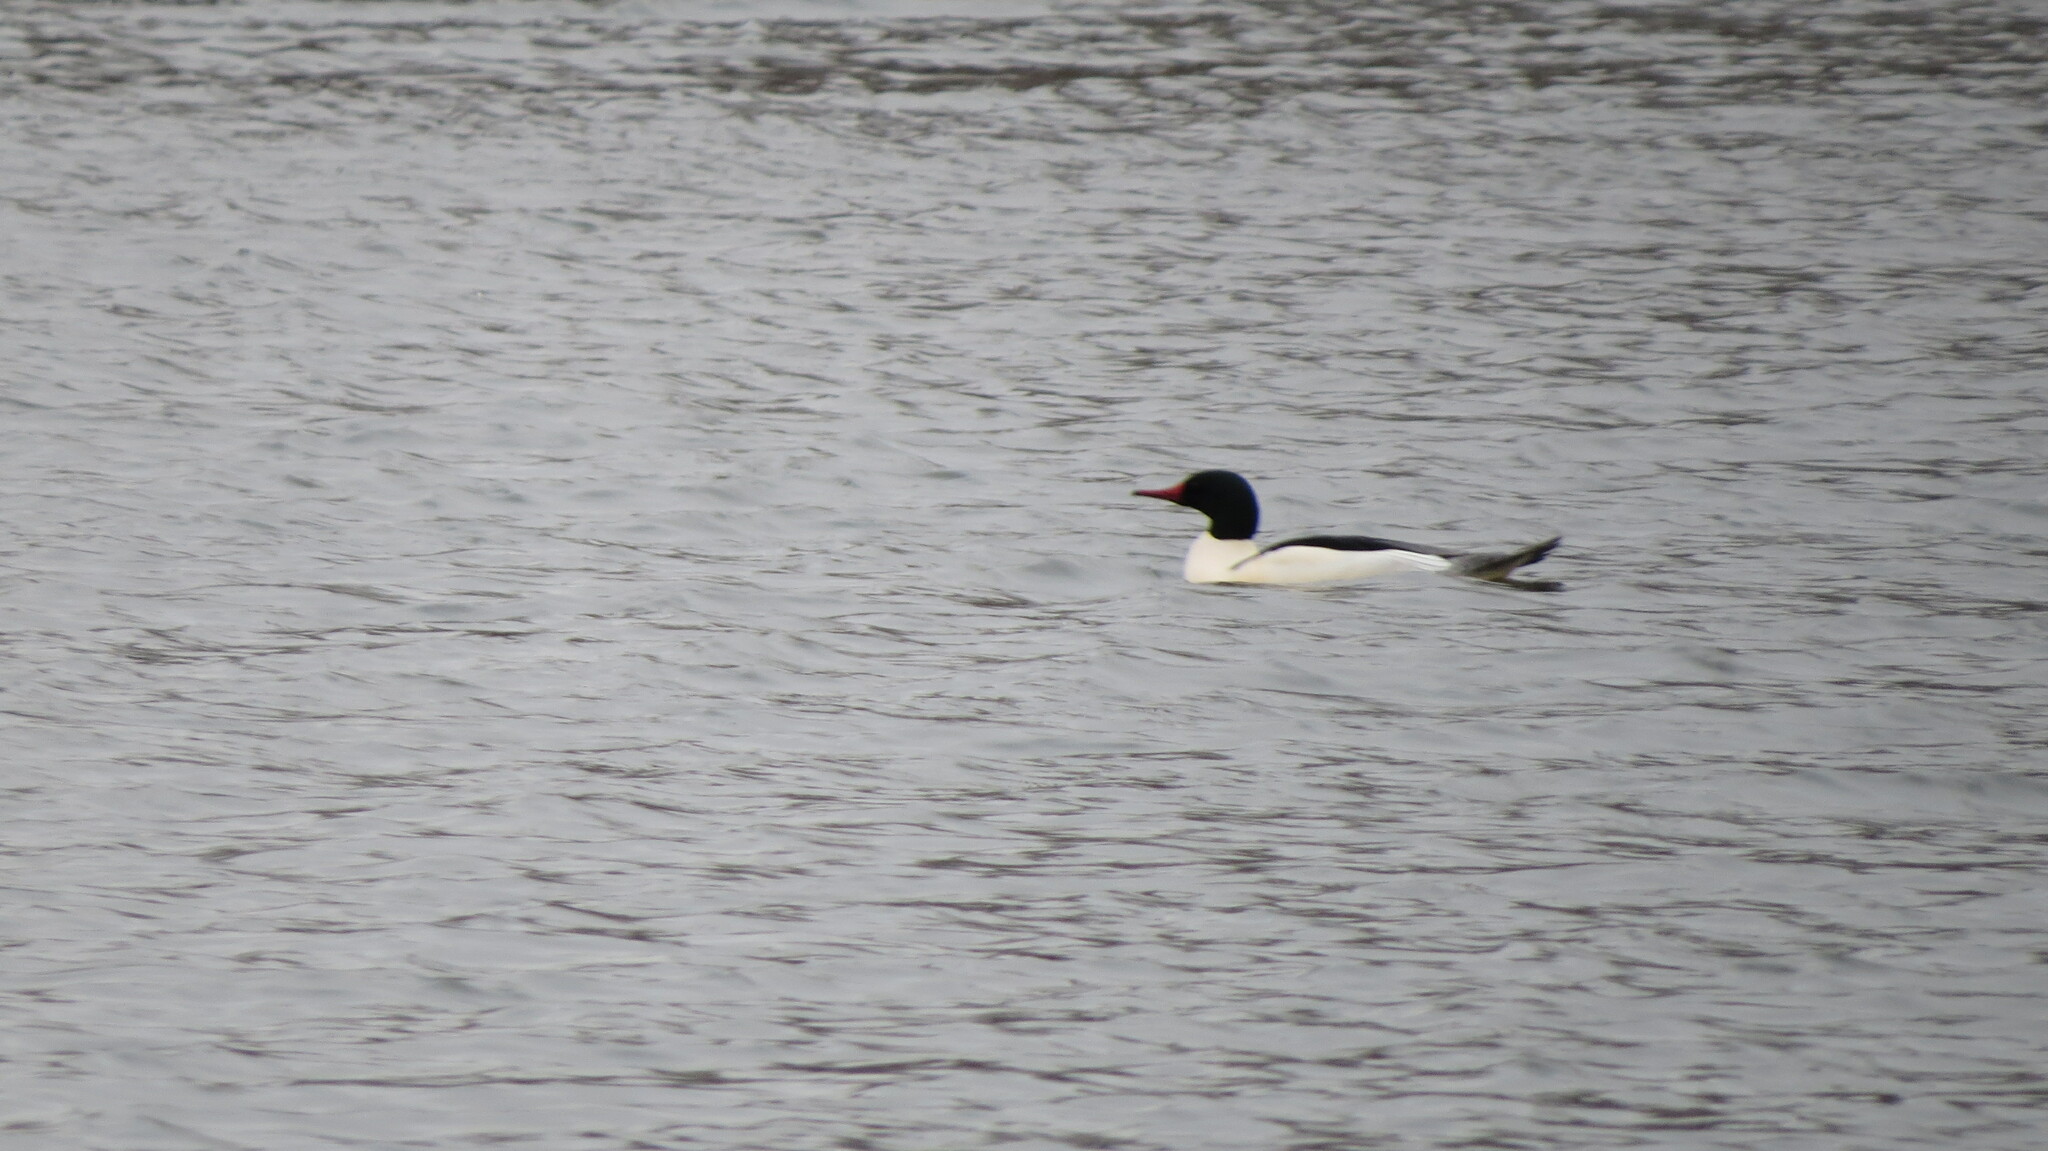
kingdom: Animalia
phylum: Chordata
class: Aves
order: Anseriformes
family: Anatidae
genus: Mergus
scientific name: Mergus merganser
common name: Common merganser
